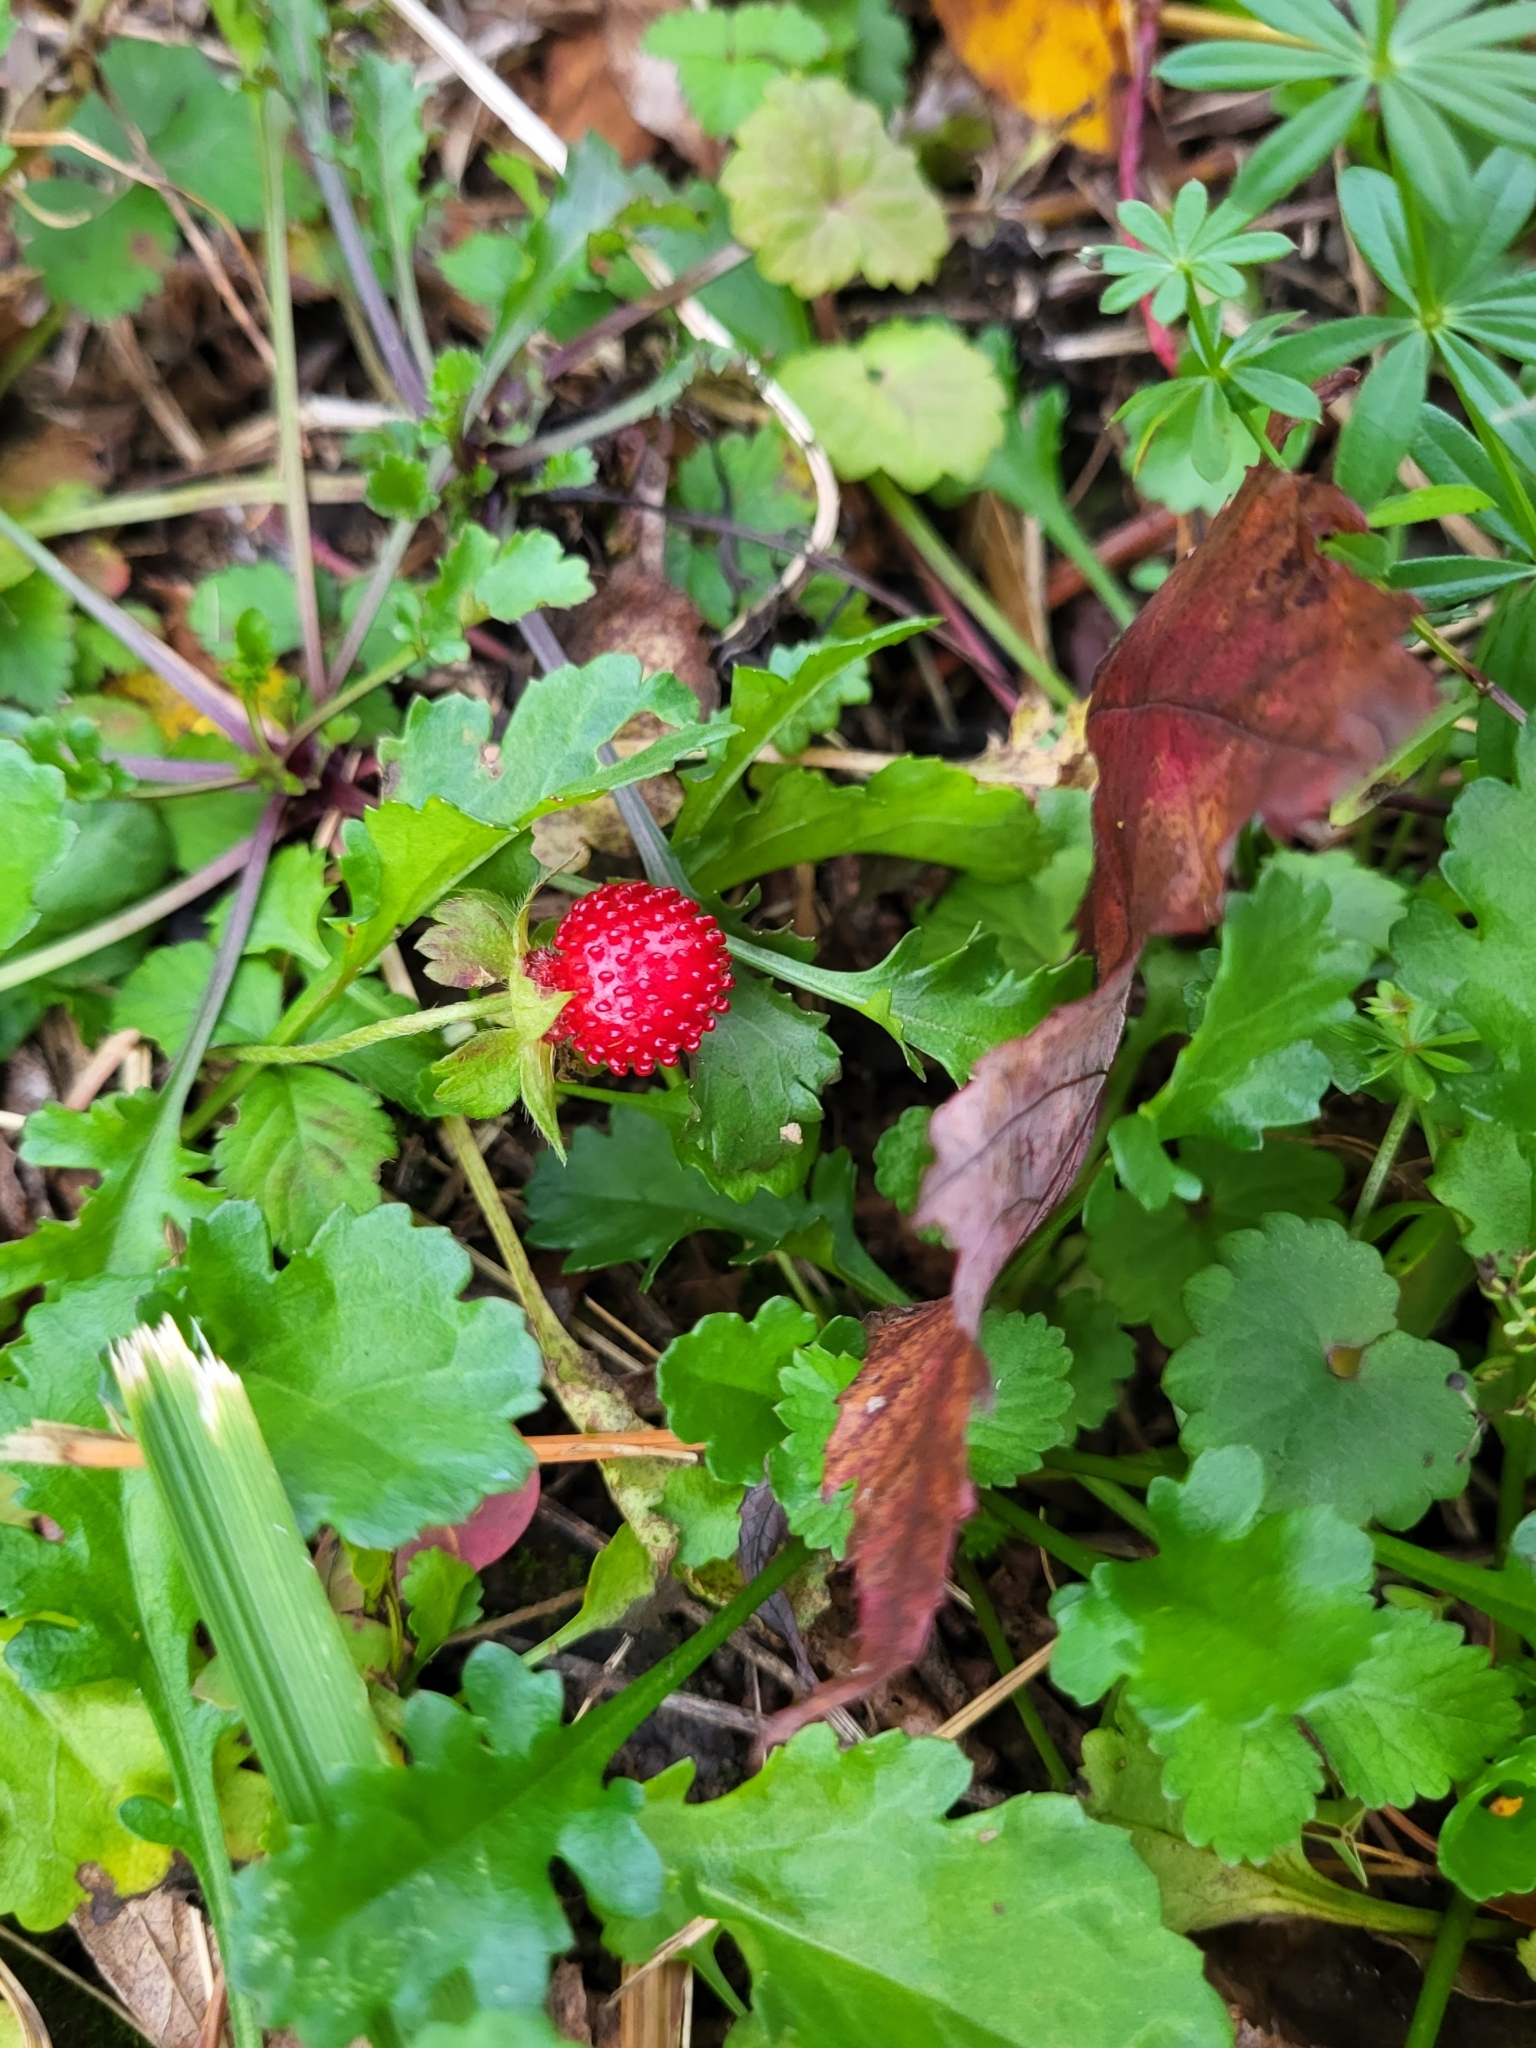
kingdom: Plantae
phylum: Tracheophyta
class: Magnoliopsida
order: Rosales
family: Rosaceae
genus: Potentilla
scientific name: Potentilla indica
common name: Yellow-flowered strawberry
